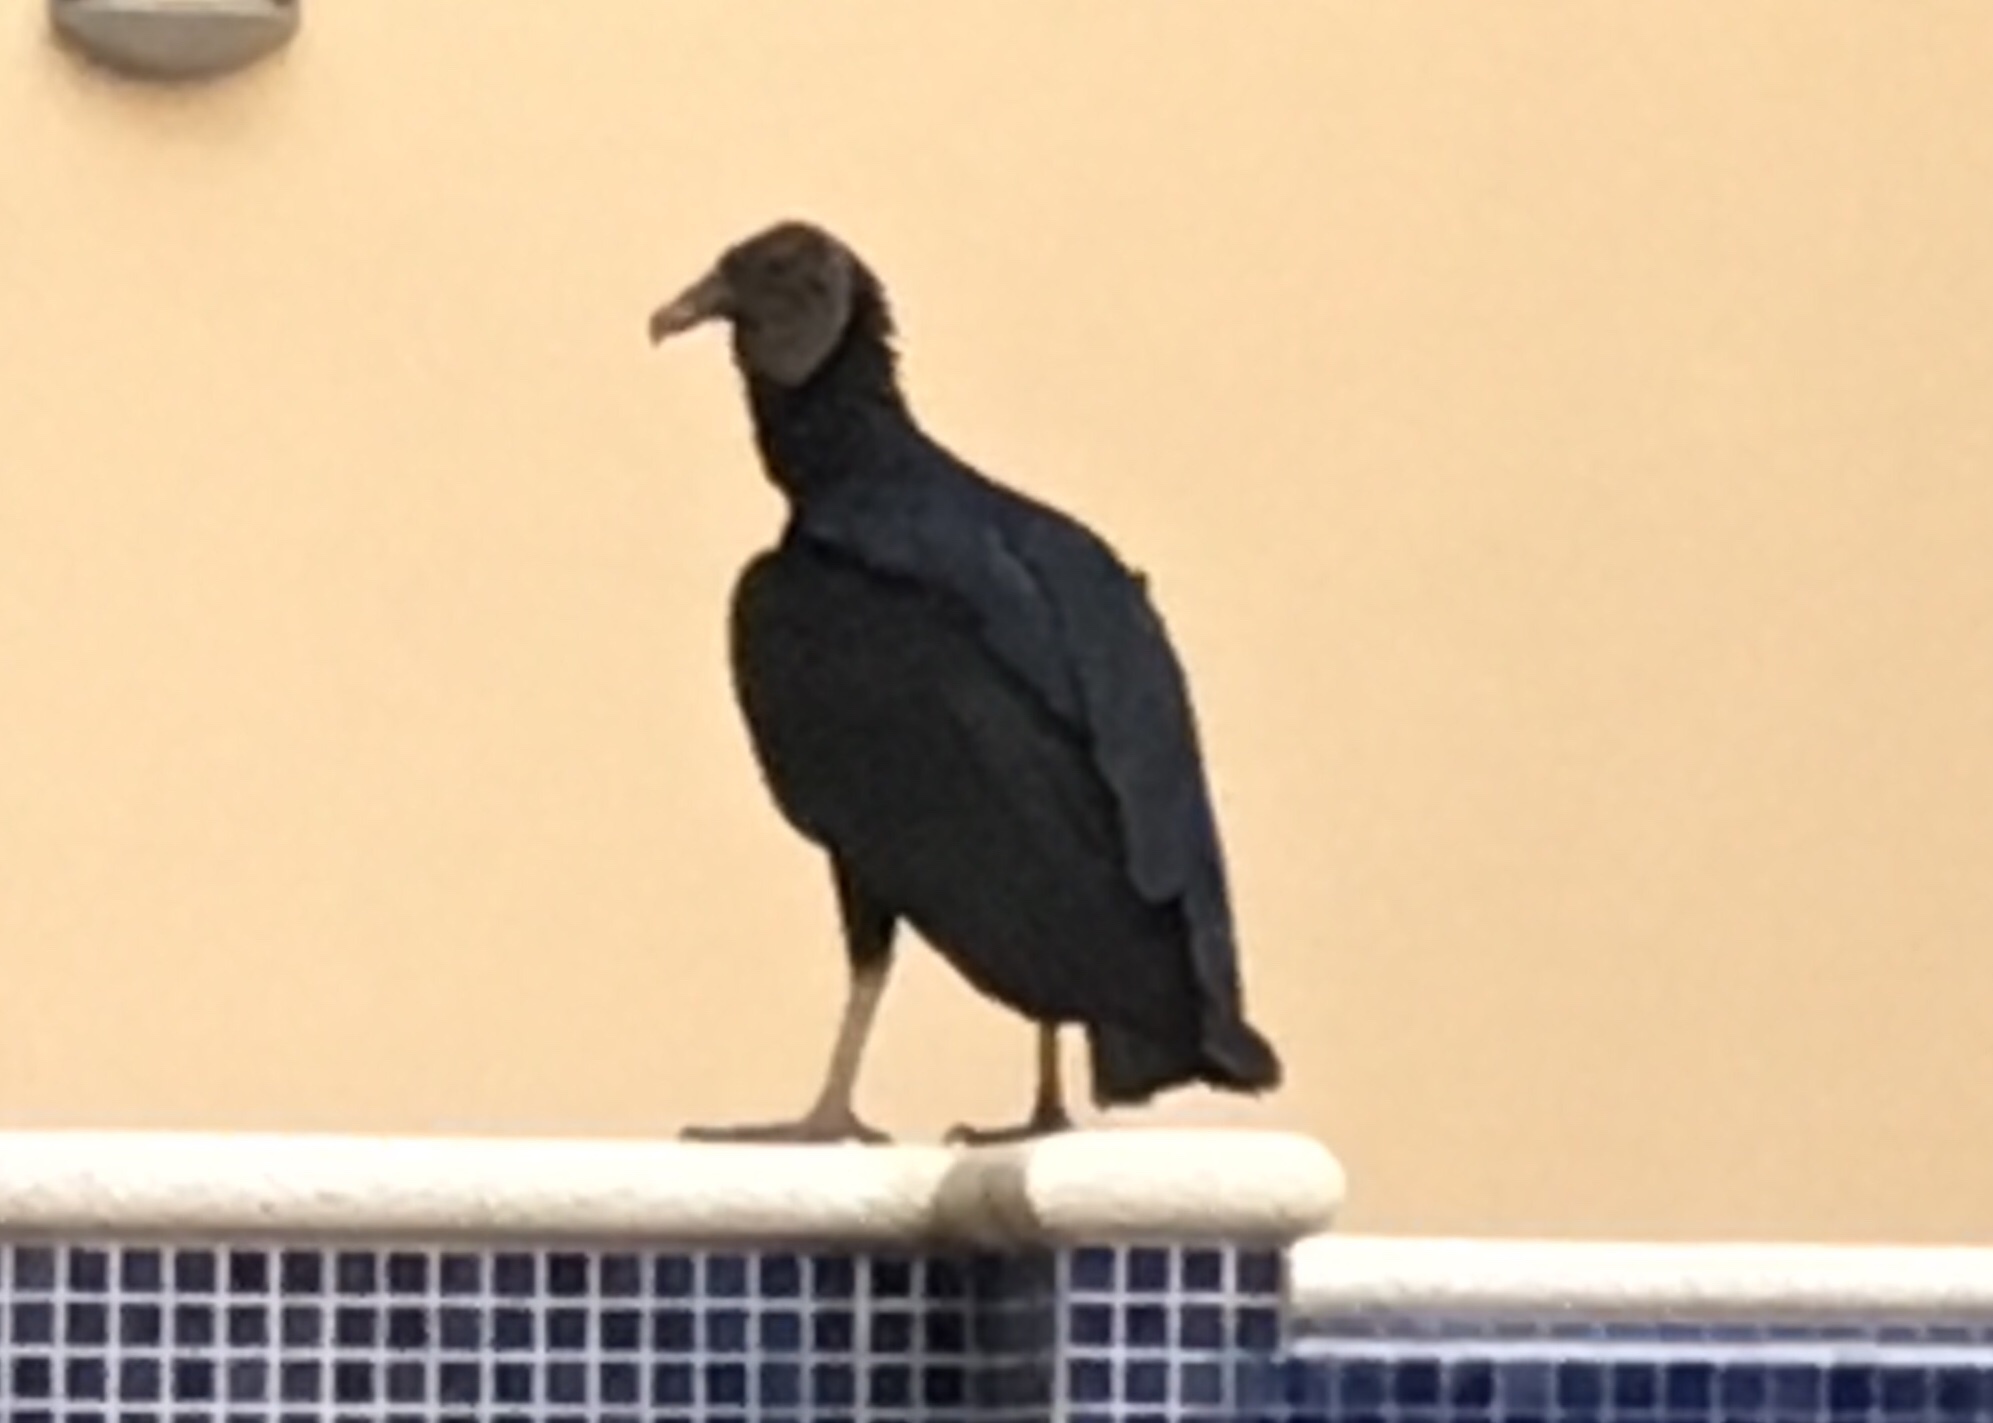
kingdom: Animalia
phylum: Chordata
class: Aves
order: Accipitriformes
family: Cathartidae
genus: Coragyps
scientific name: Coragyps atratus
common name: Black vulture
